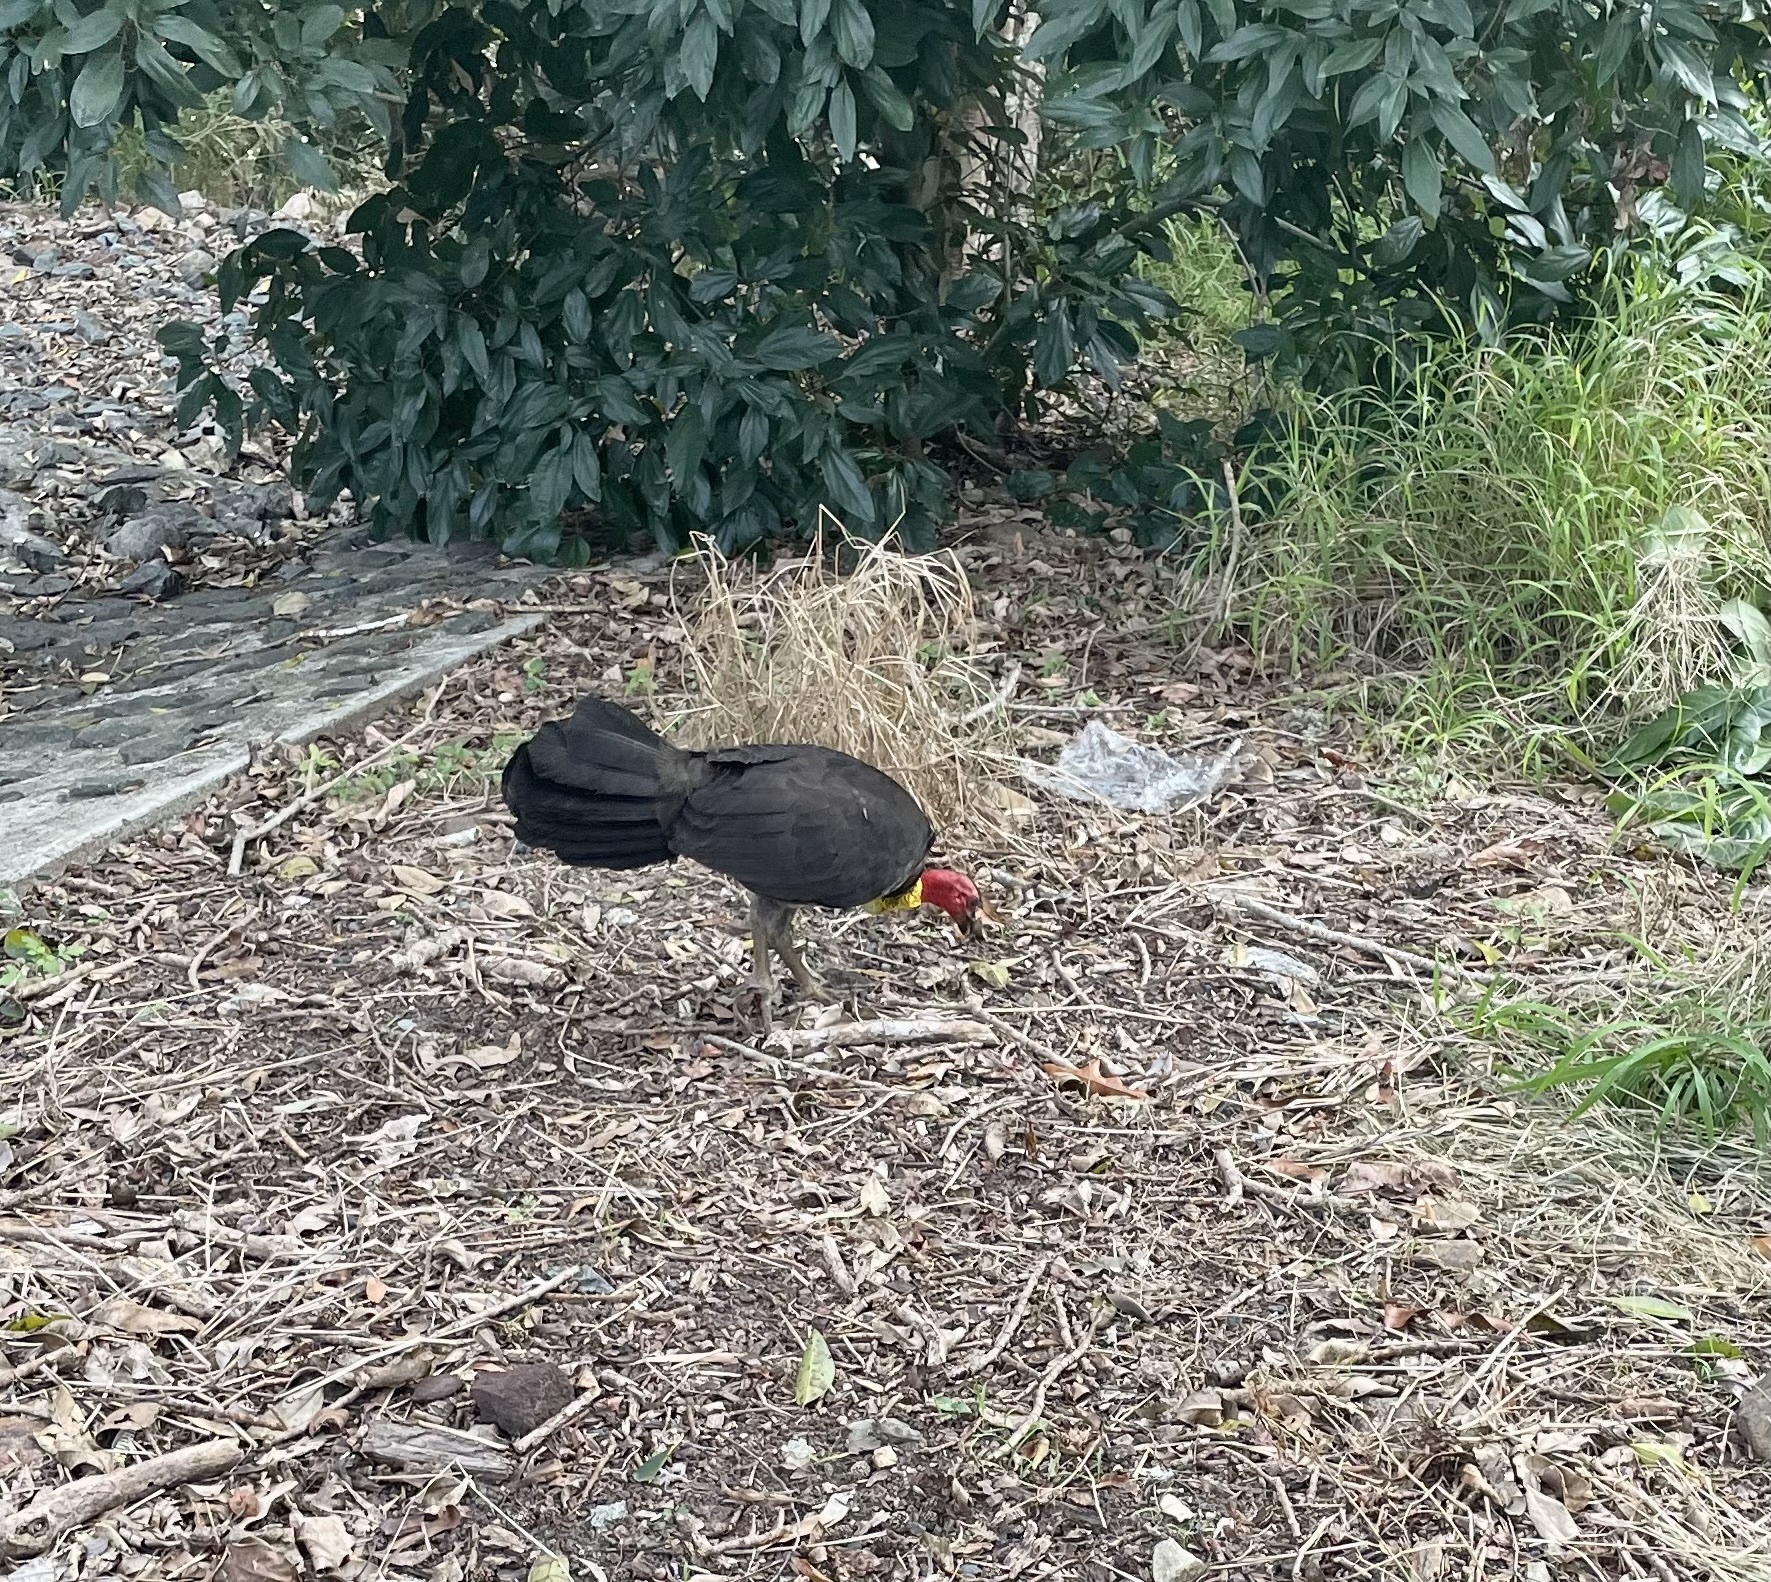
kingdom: Animalia
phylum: Chordata
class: Aves
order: Galliformes
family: Megapodiidae
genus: Alectura
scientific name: Alectura lathami
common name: Australian brushturkey
